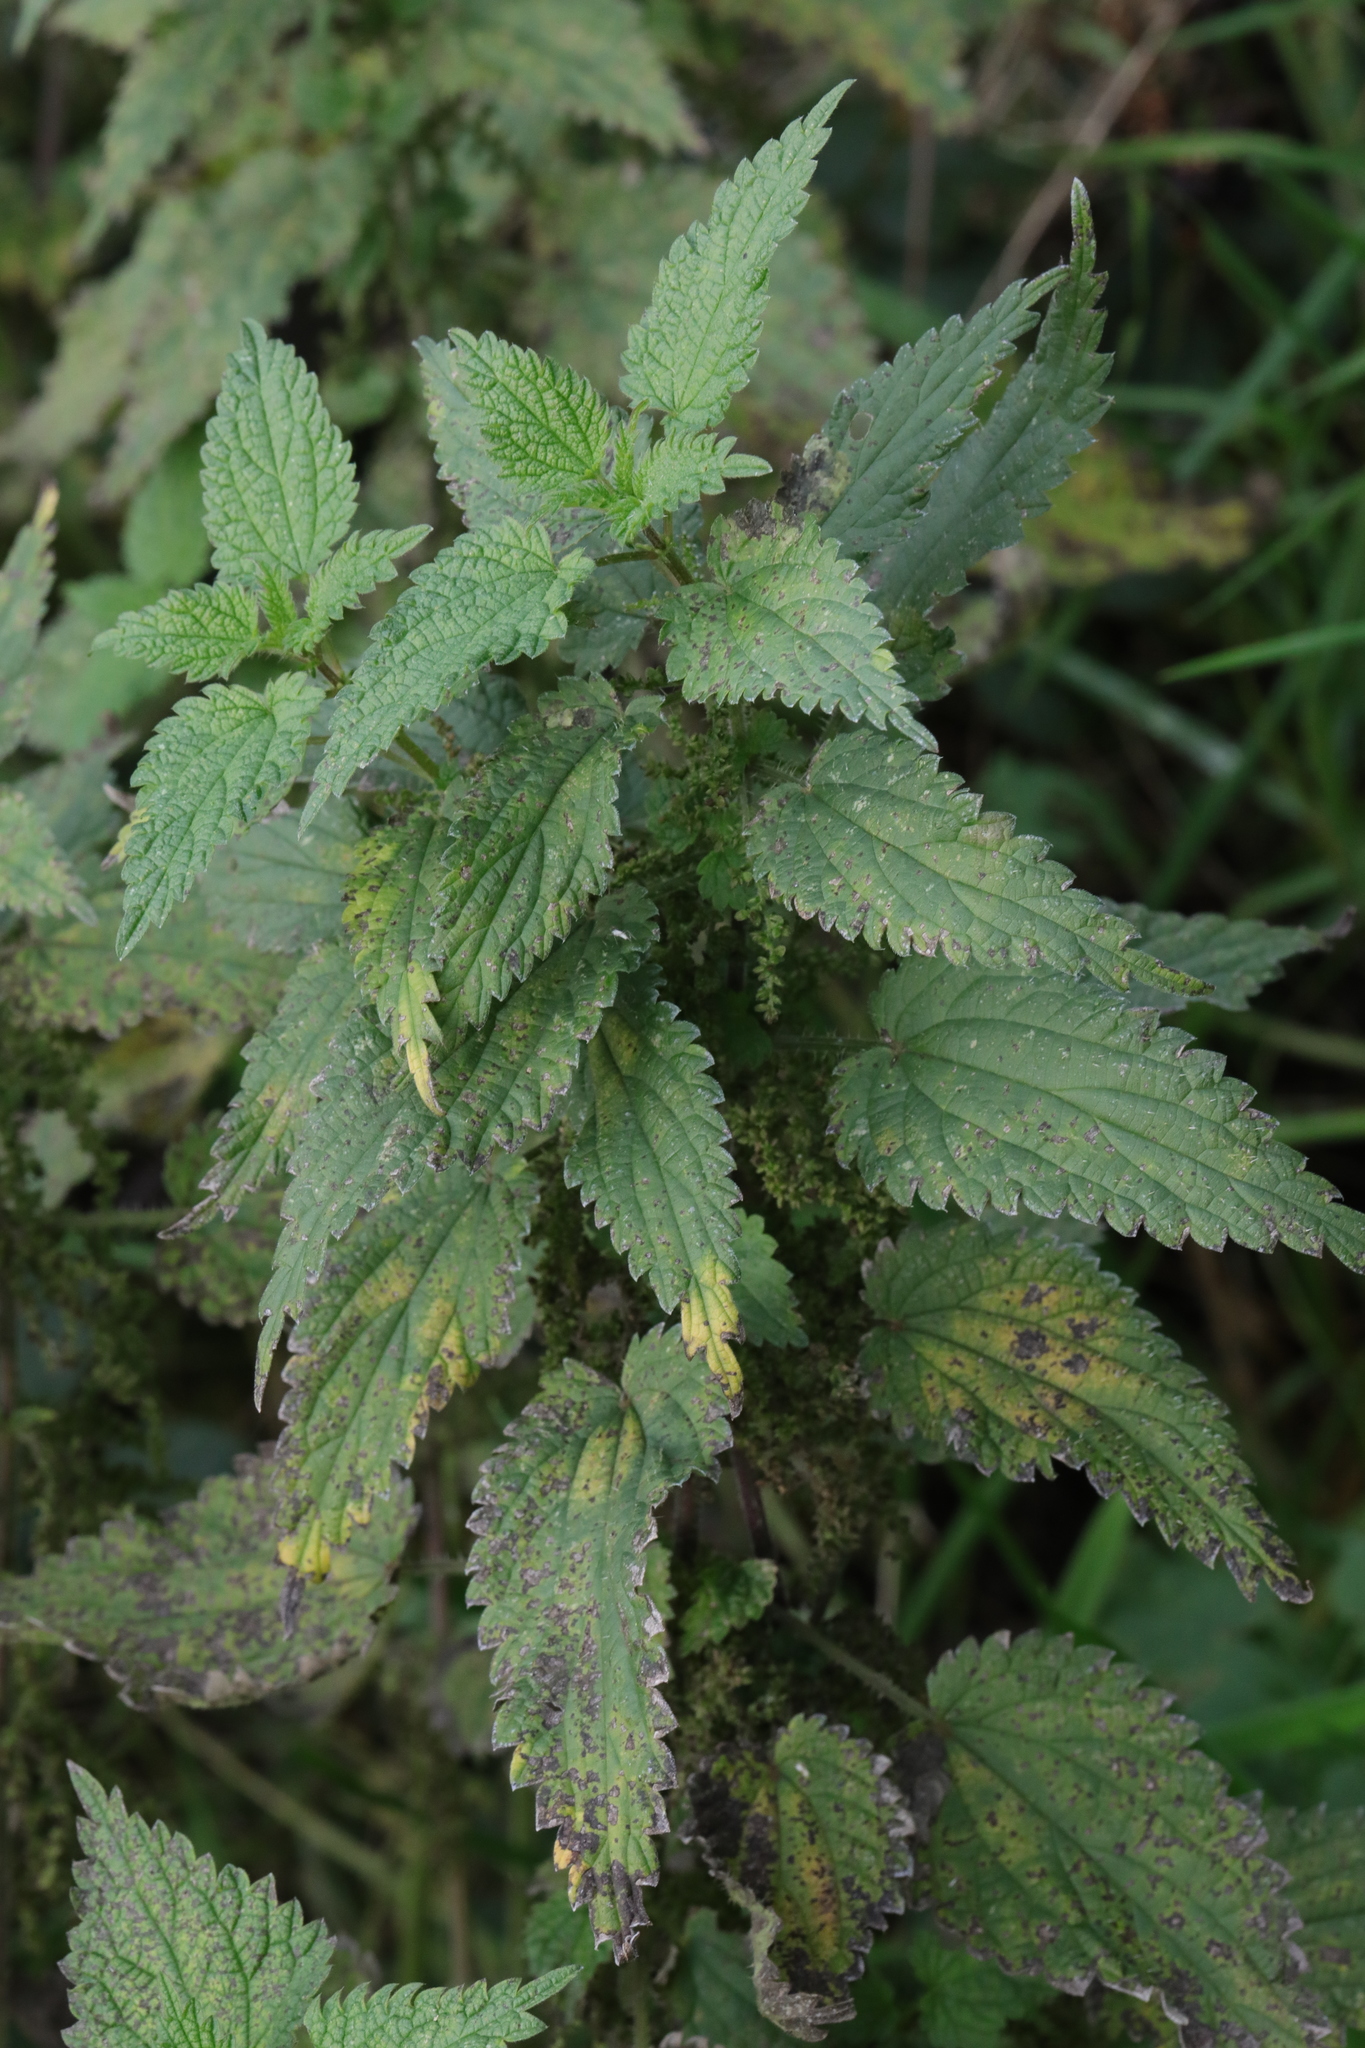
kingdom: Plantae
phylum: Tracheophyta
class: Magnoliopsida
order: Rosales
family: Urticaceae
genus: Urtica
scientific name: Urtica dioica
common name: Common nettle
